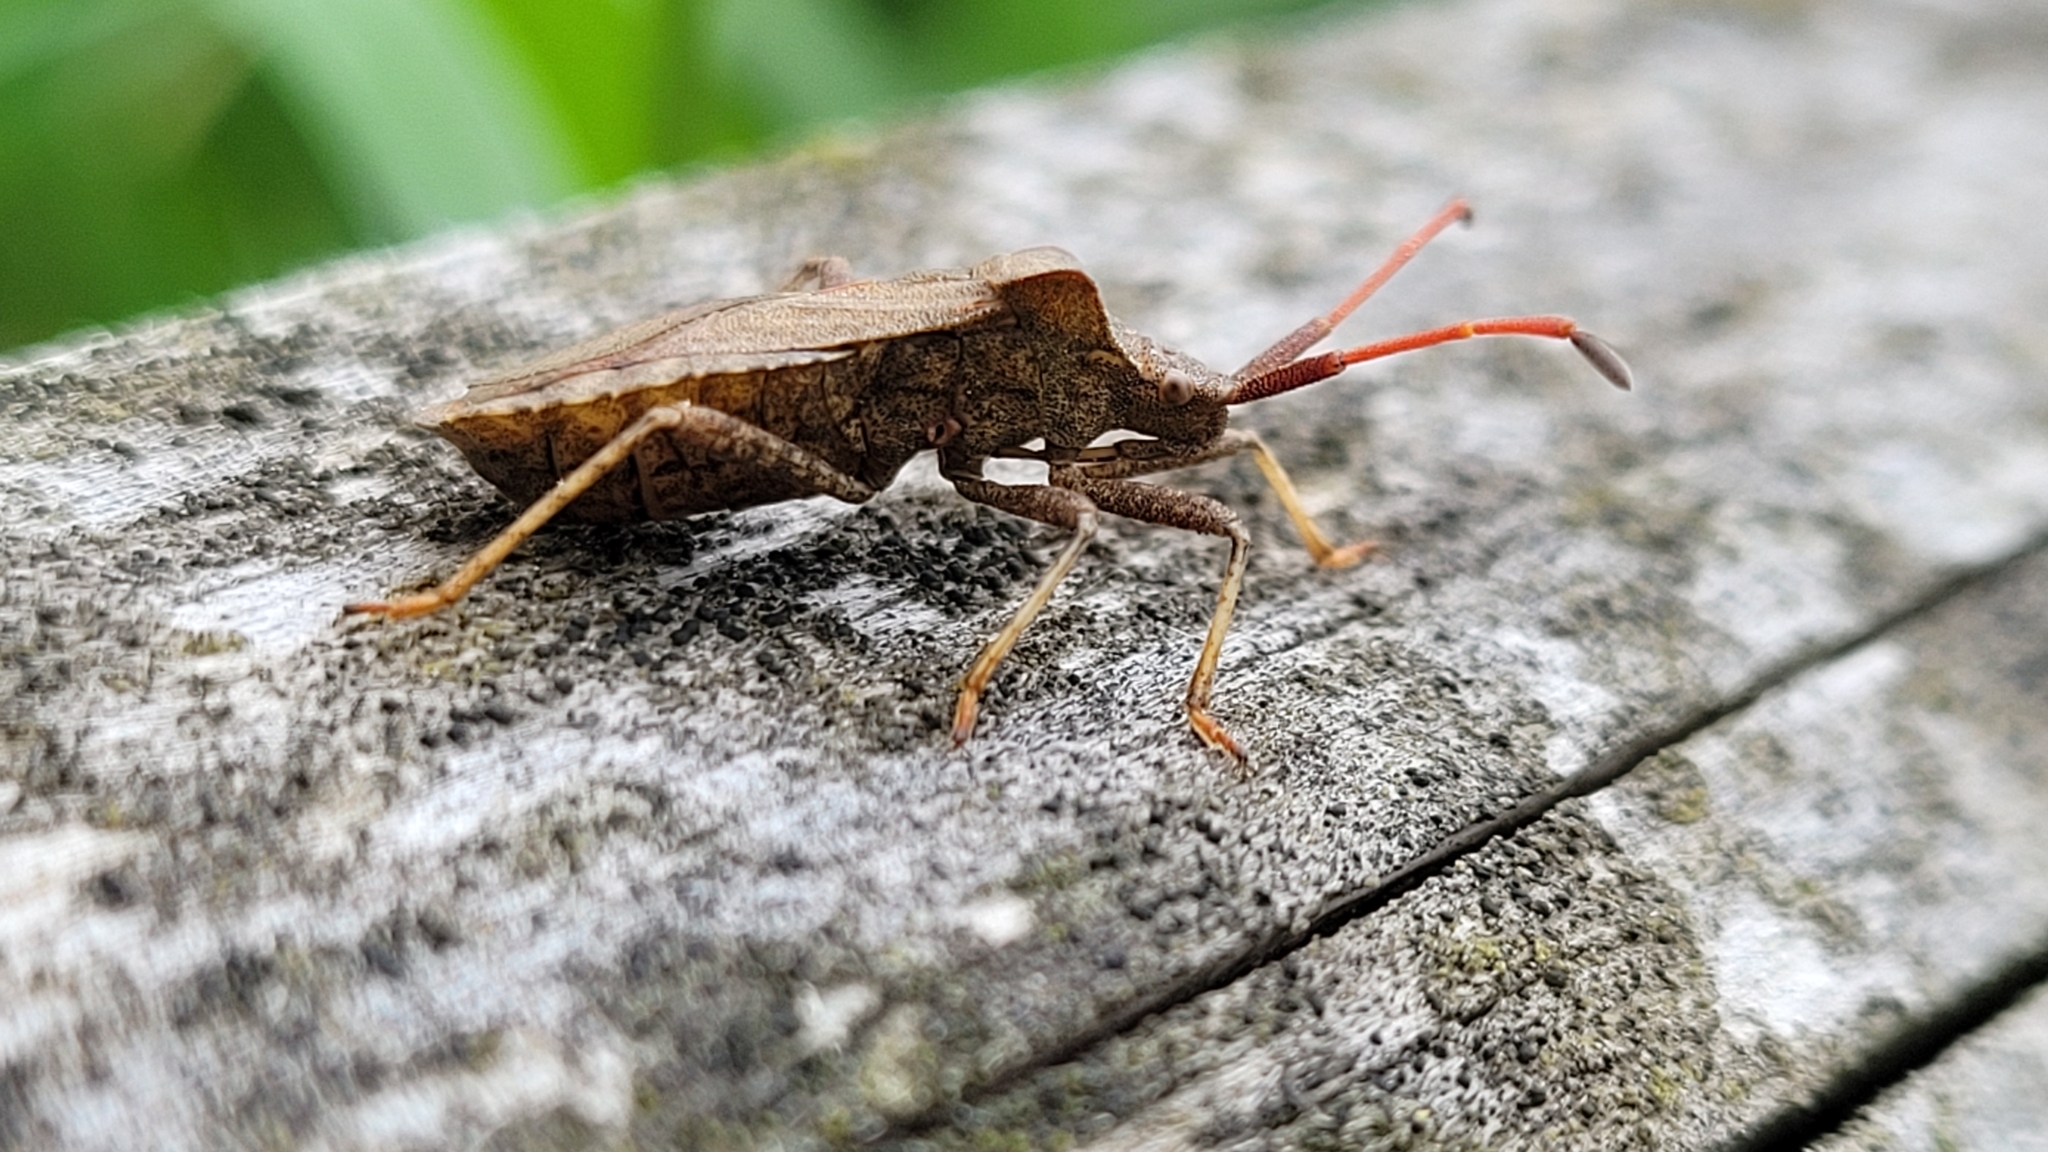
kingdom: Animalia
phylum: Arthropoda
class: Insecta
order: Hemiptera
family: Coreidae
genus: Coreus
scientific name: Coreus marginatus
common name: Dock bug
